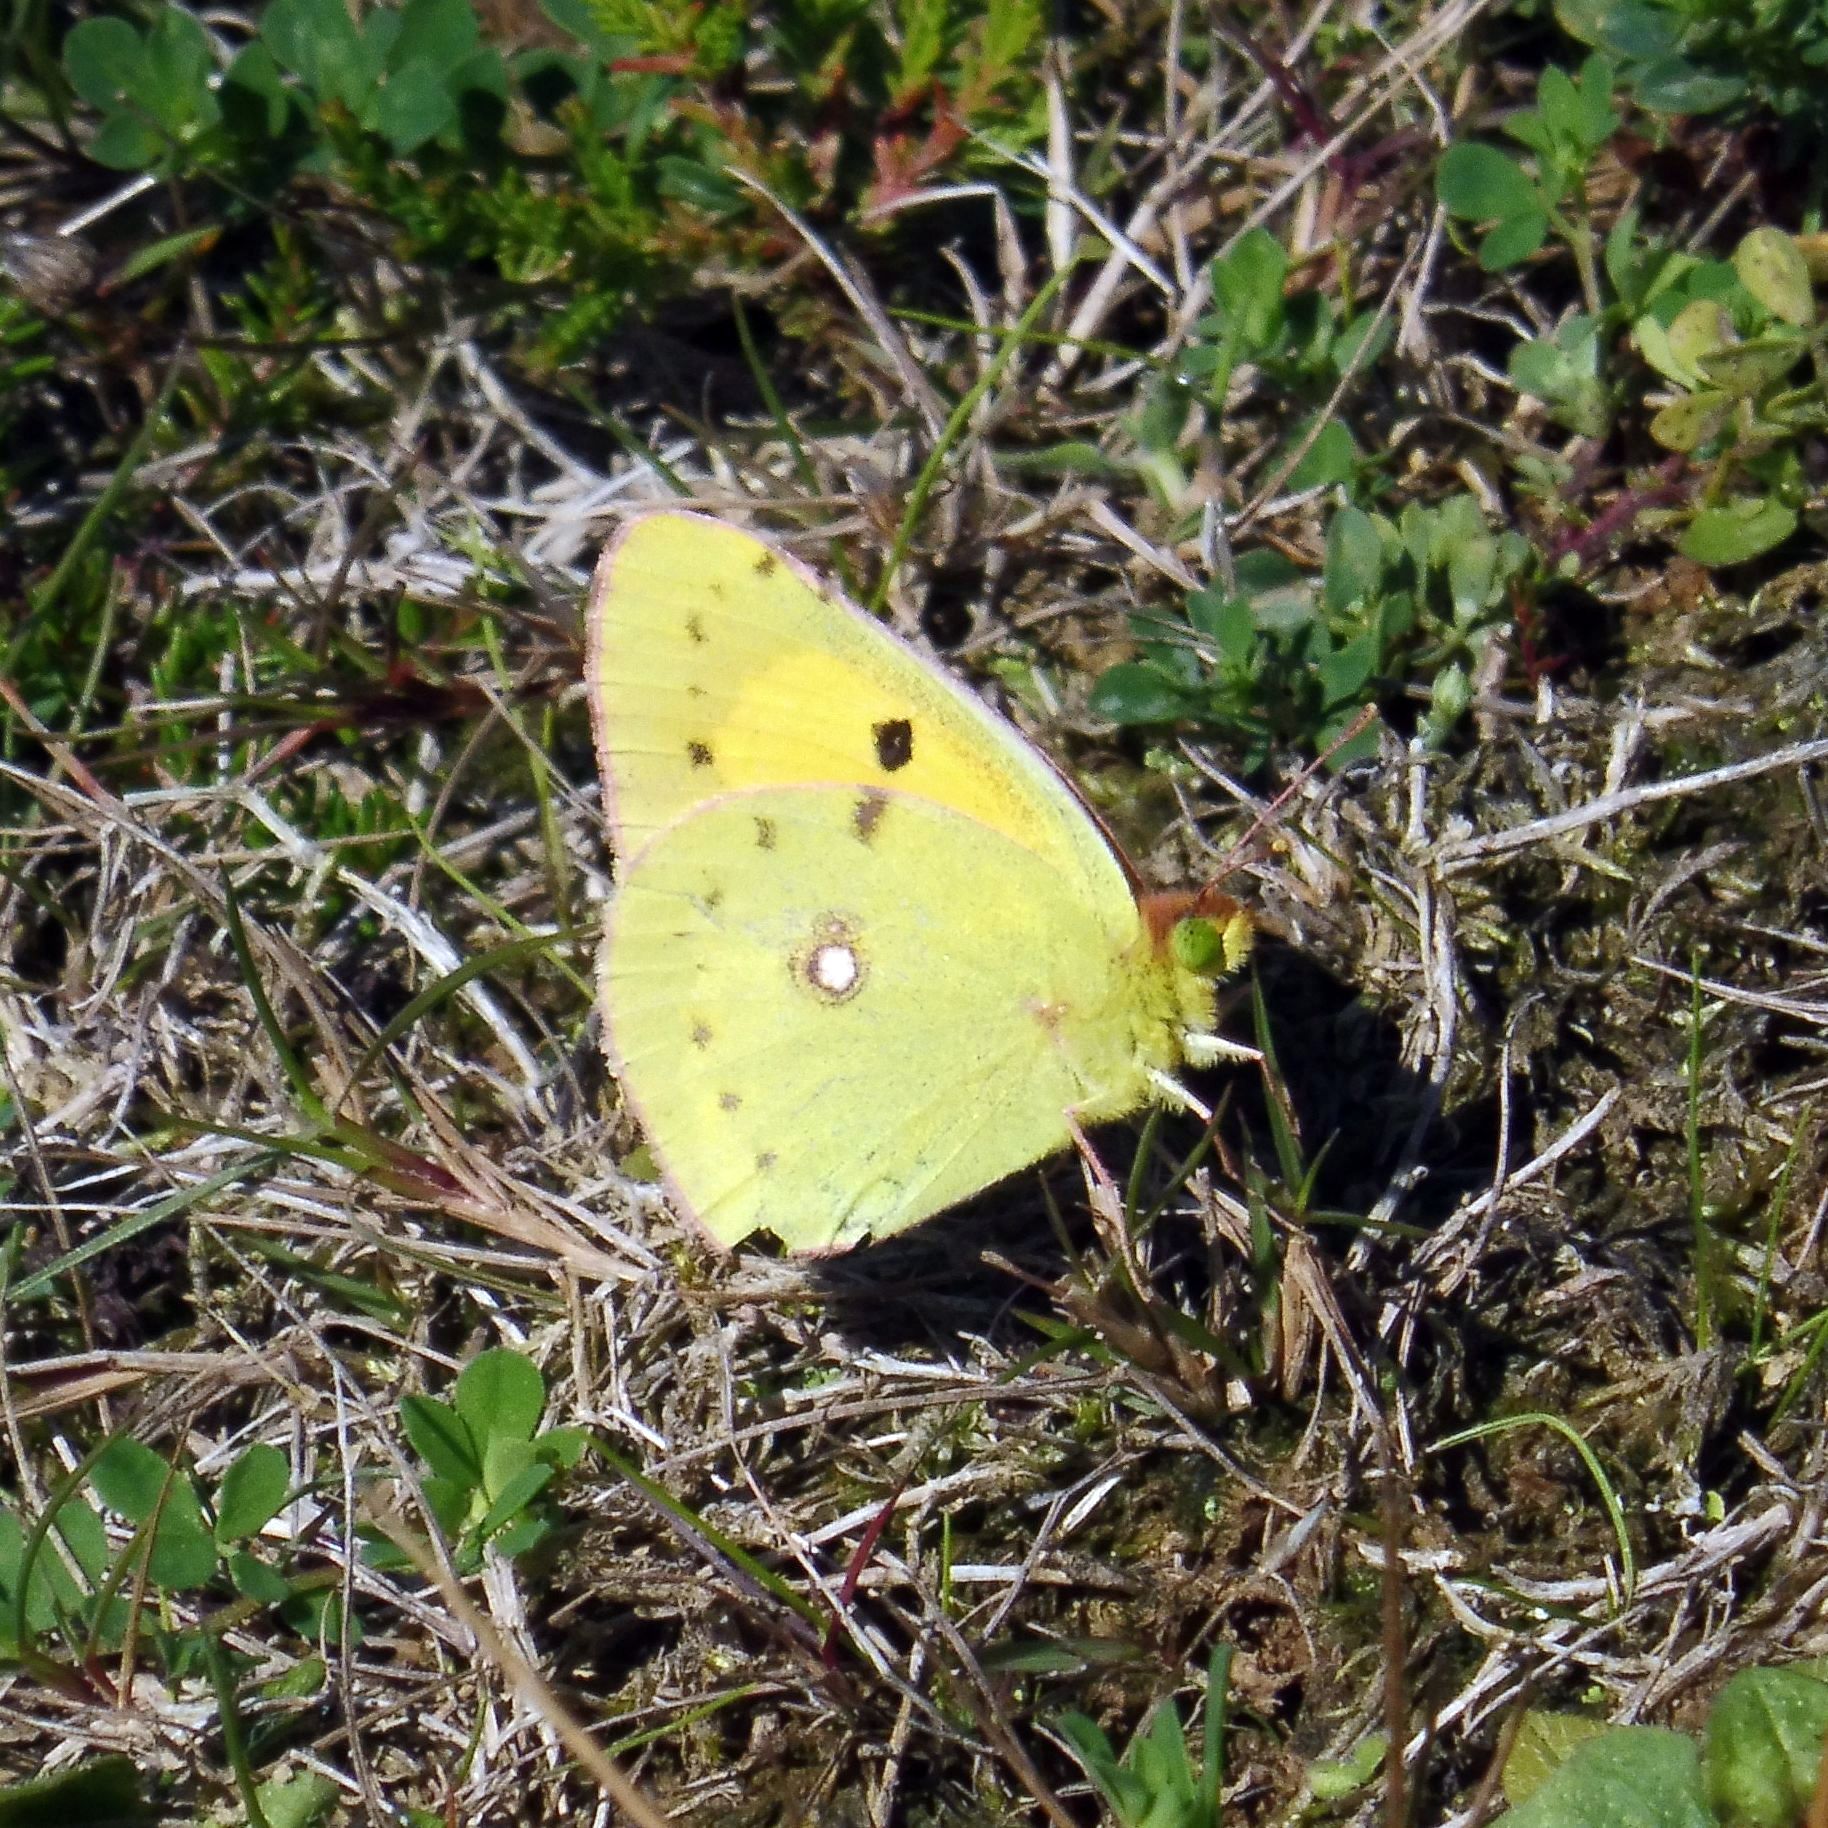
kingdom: Animalia
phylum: Arthropoda
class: Insecta
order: Lepidoptera
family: Pieridae
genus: Colias
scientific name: Colias croceus
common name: Clouded yellow
